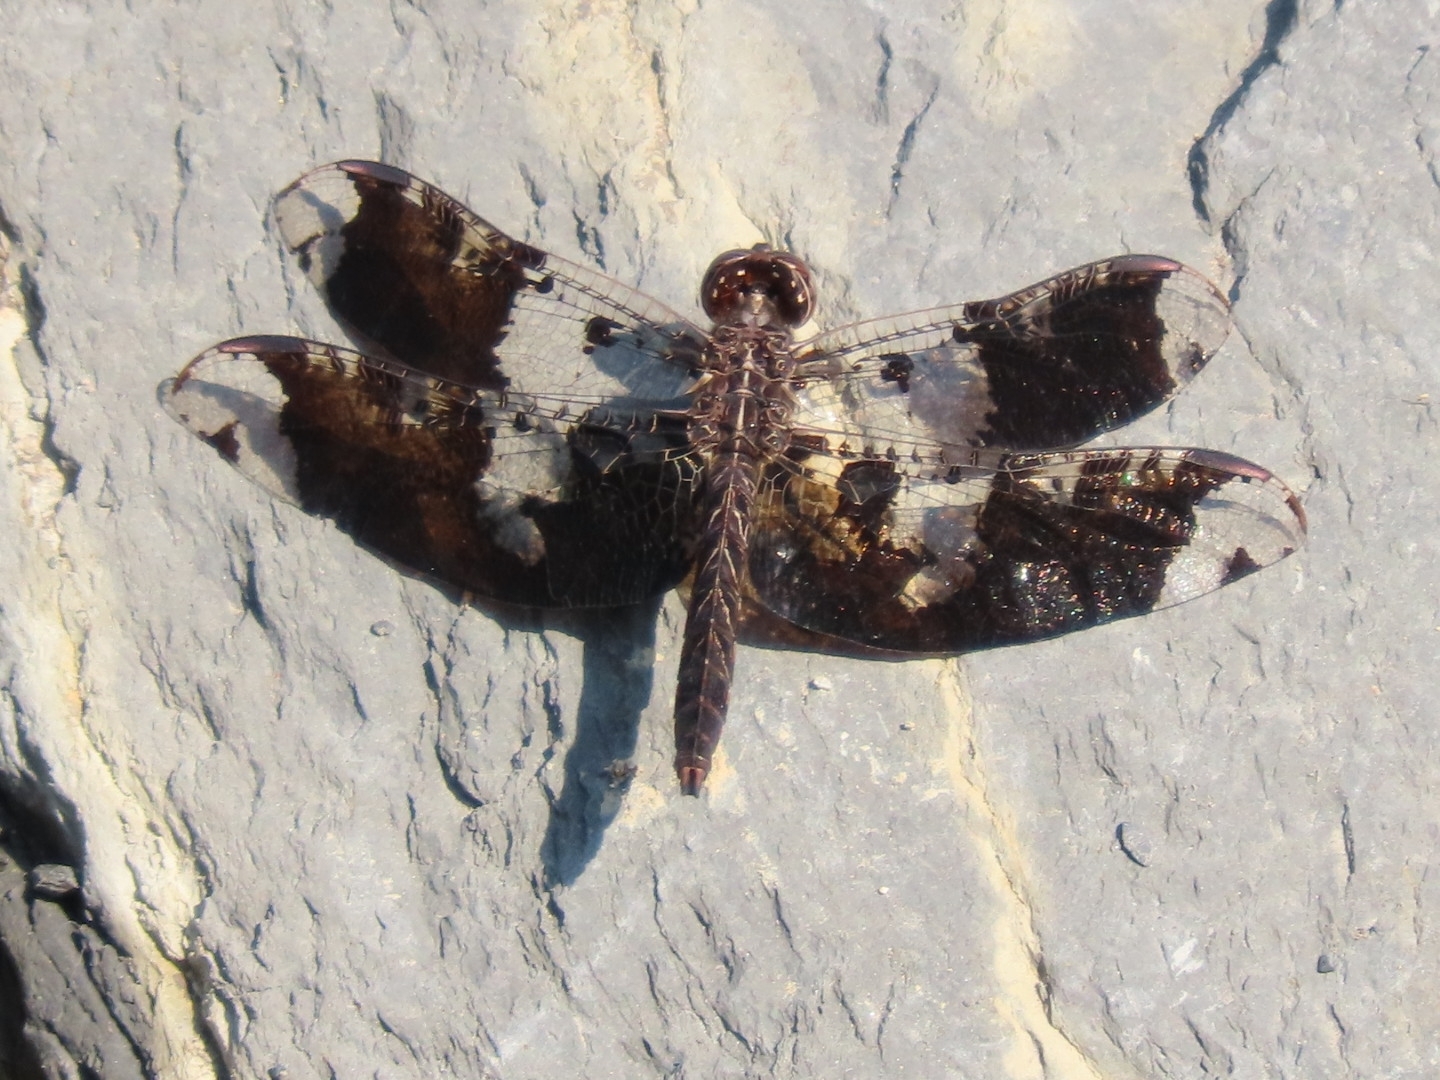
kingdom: Animalia
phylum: Arthropoda
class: Insecta
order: Odonata
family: Libellulidae
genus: Pseudoleon
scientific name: Pseudoleon superbus
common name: Filigree skimmer
